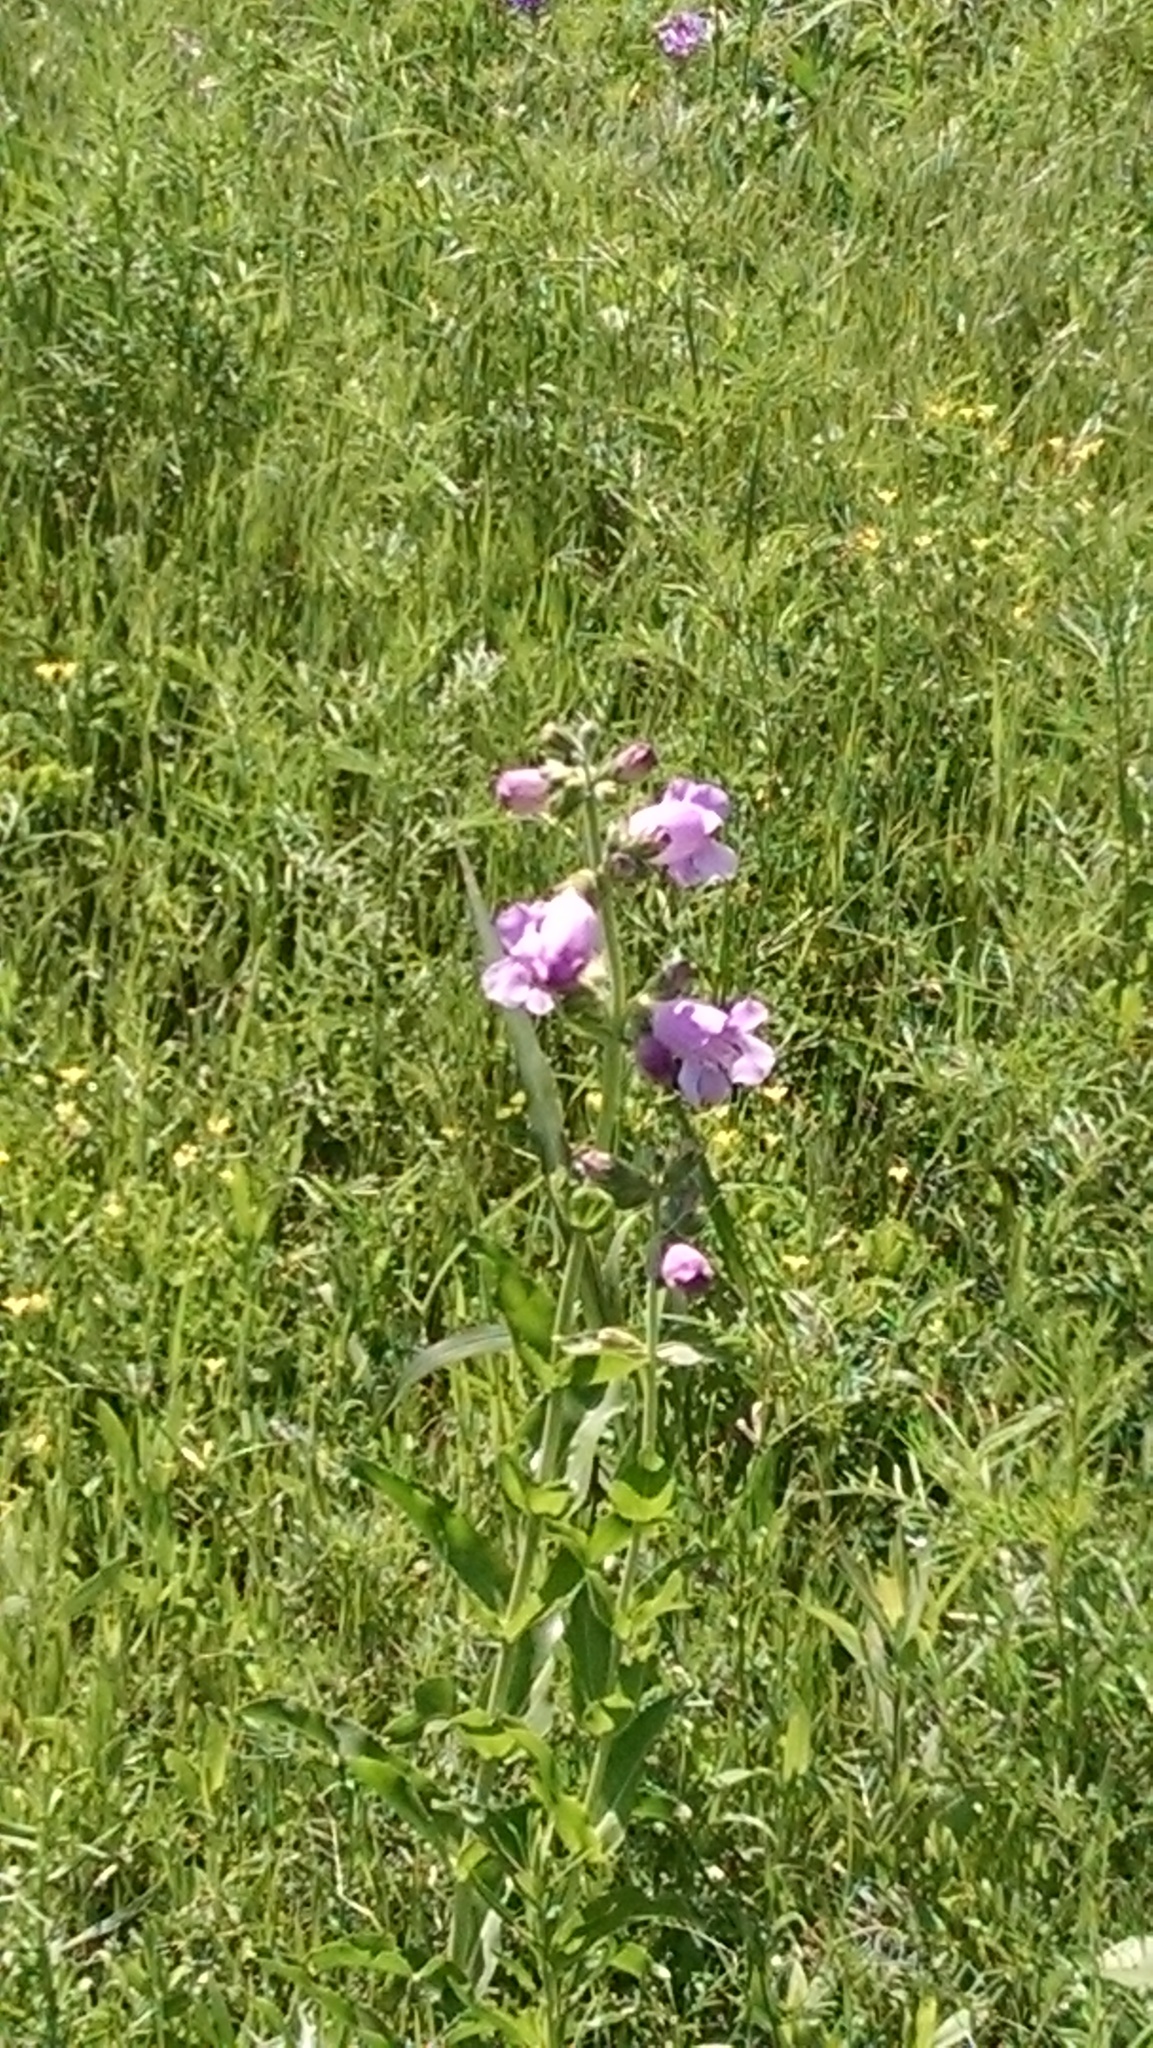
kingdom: Plantae
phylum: Tracheophyta
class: Magnoliopsida
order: Lamiales
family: Plantaginaceae
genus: Penstemon
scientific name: Penstemon cobaea
